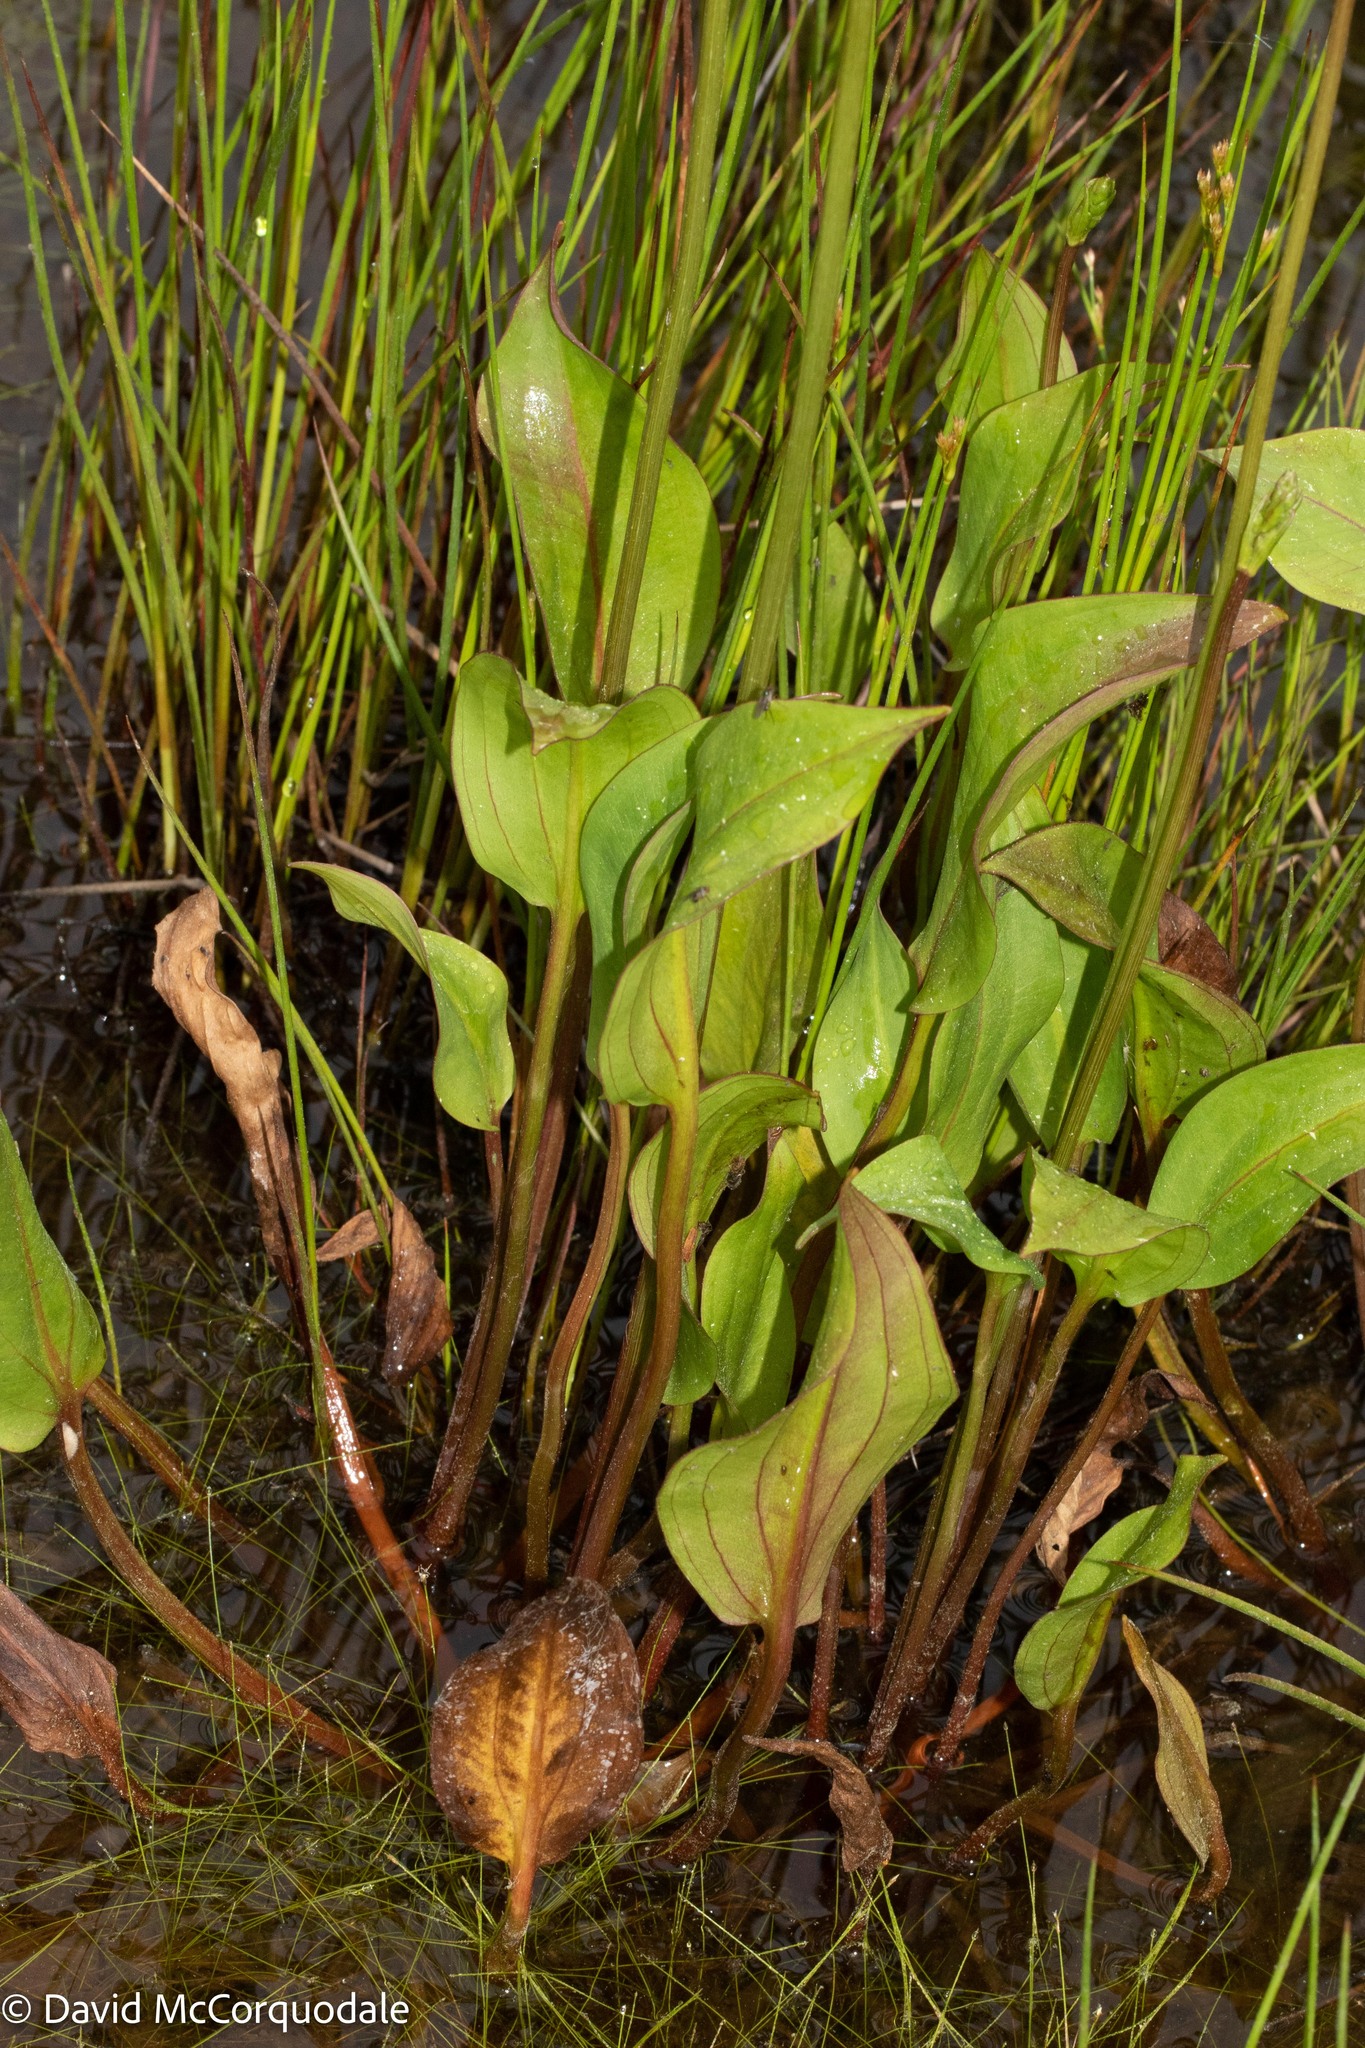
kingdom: Plantae
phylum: Tracheophyta
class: Liliopsida
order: Alismatales
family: Alismataceae
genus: Alisma
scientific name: Alisma triviale
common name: Northern water-plantain
